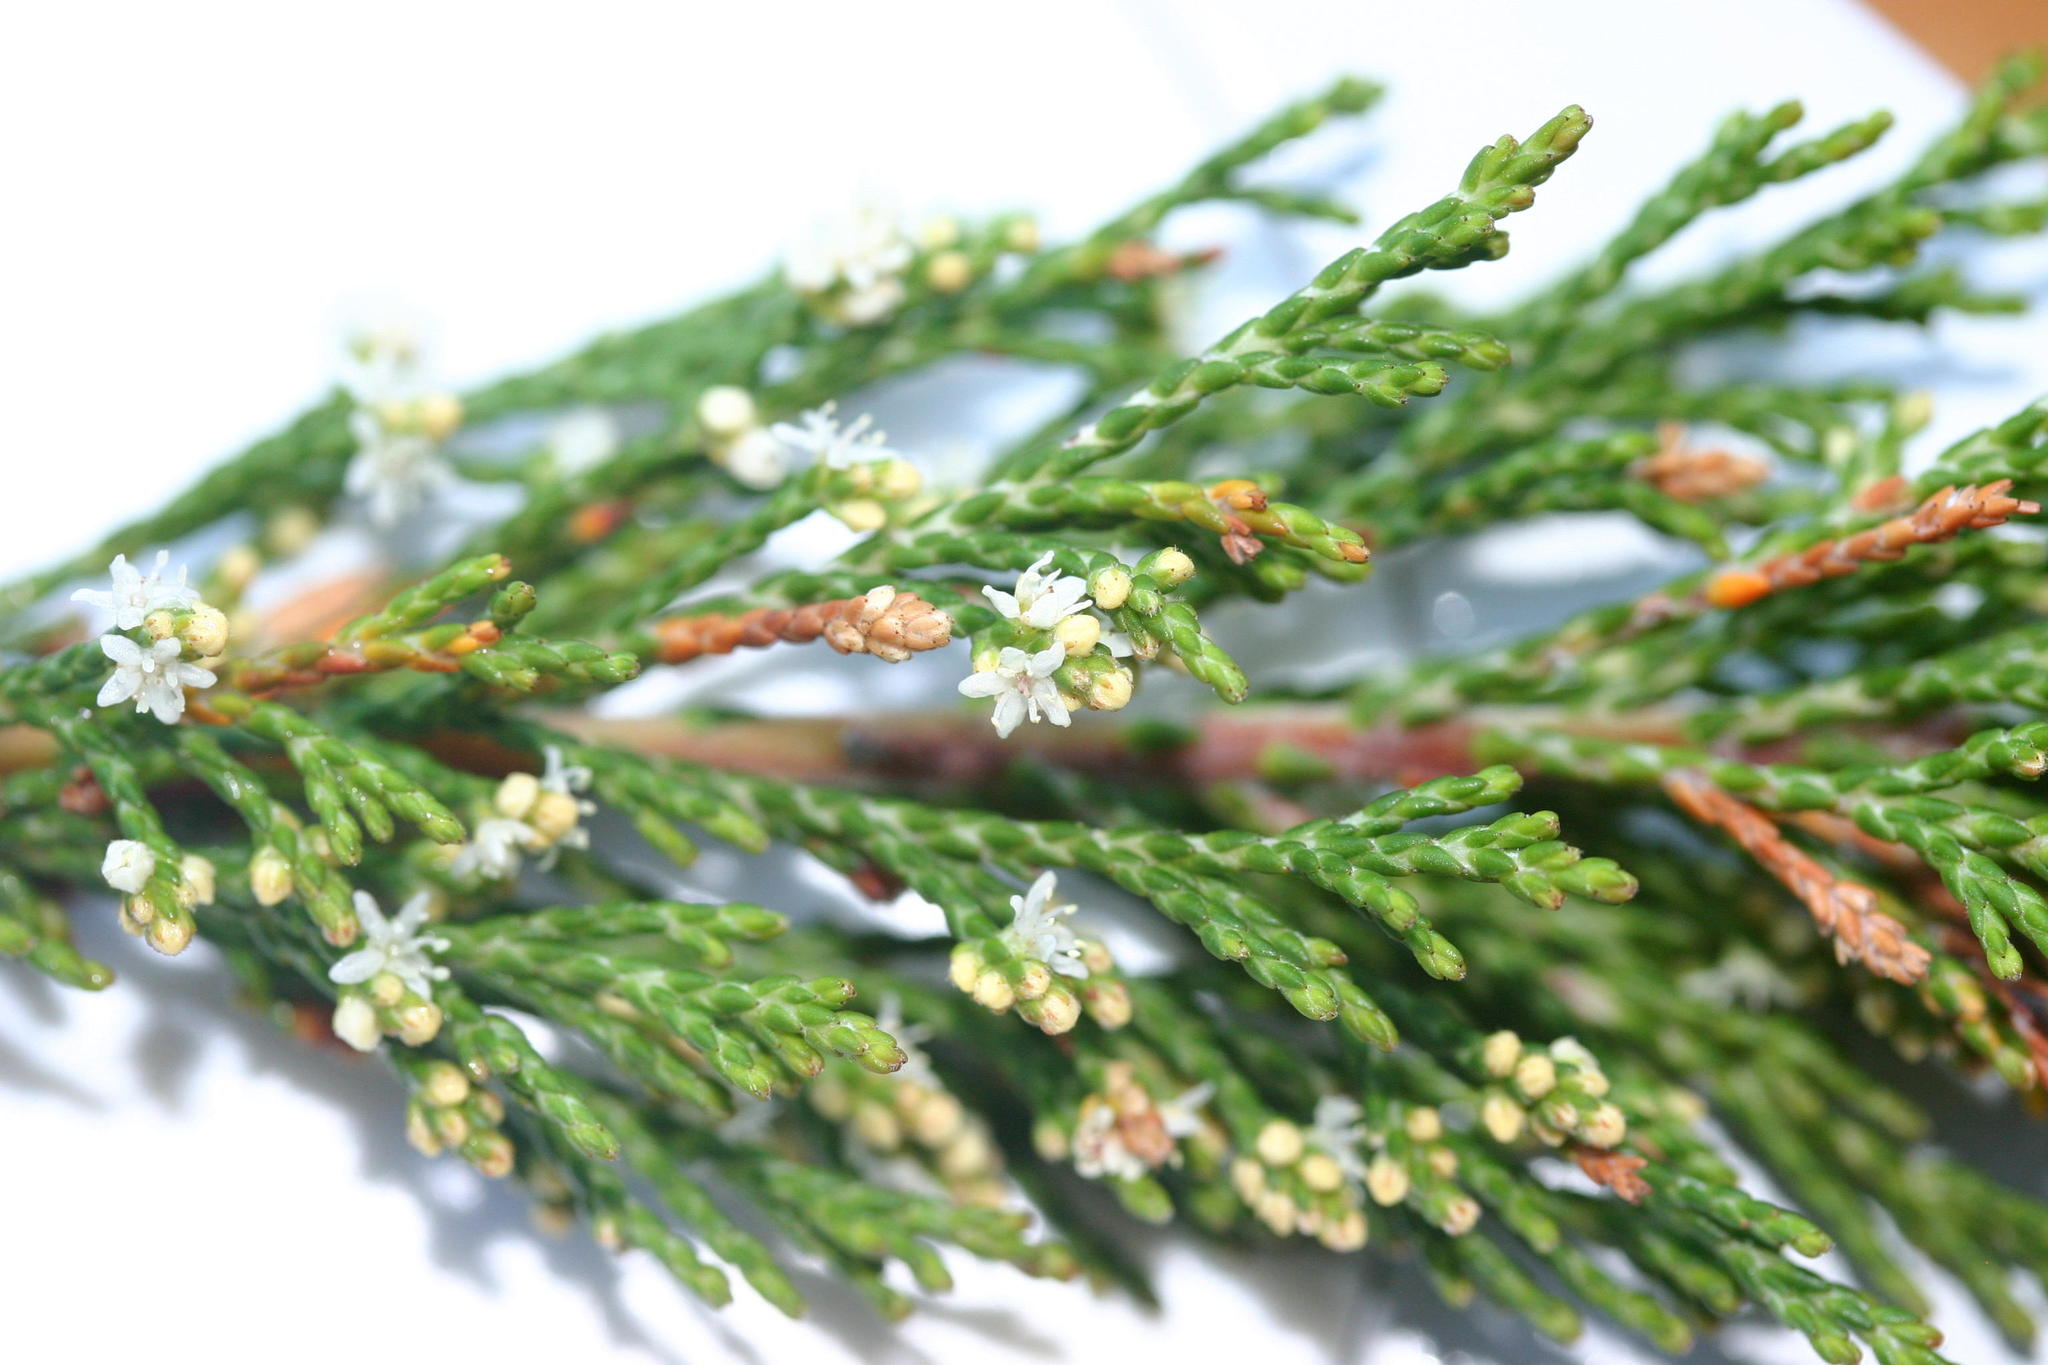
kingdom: Plantae
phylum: Tracheophyta
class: Magnoliopsida
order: Bruniales
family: Bruniaceae
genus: Brunia
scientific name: Brunia schlechteri
